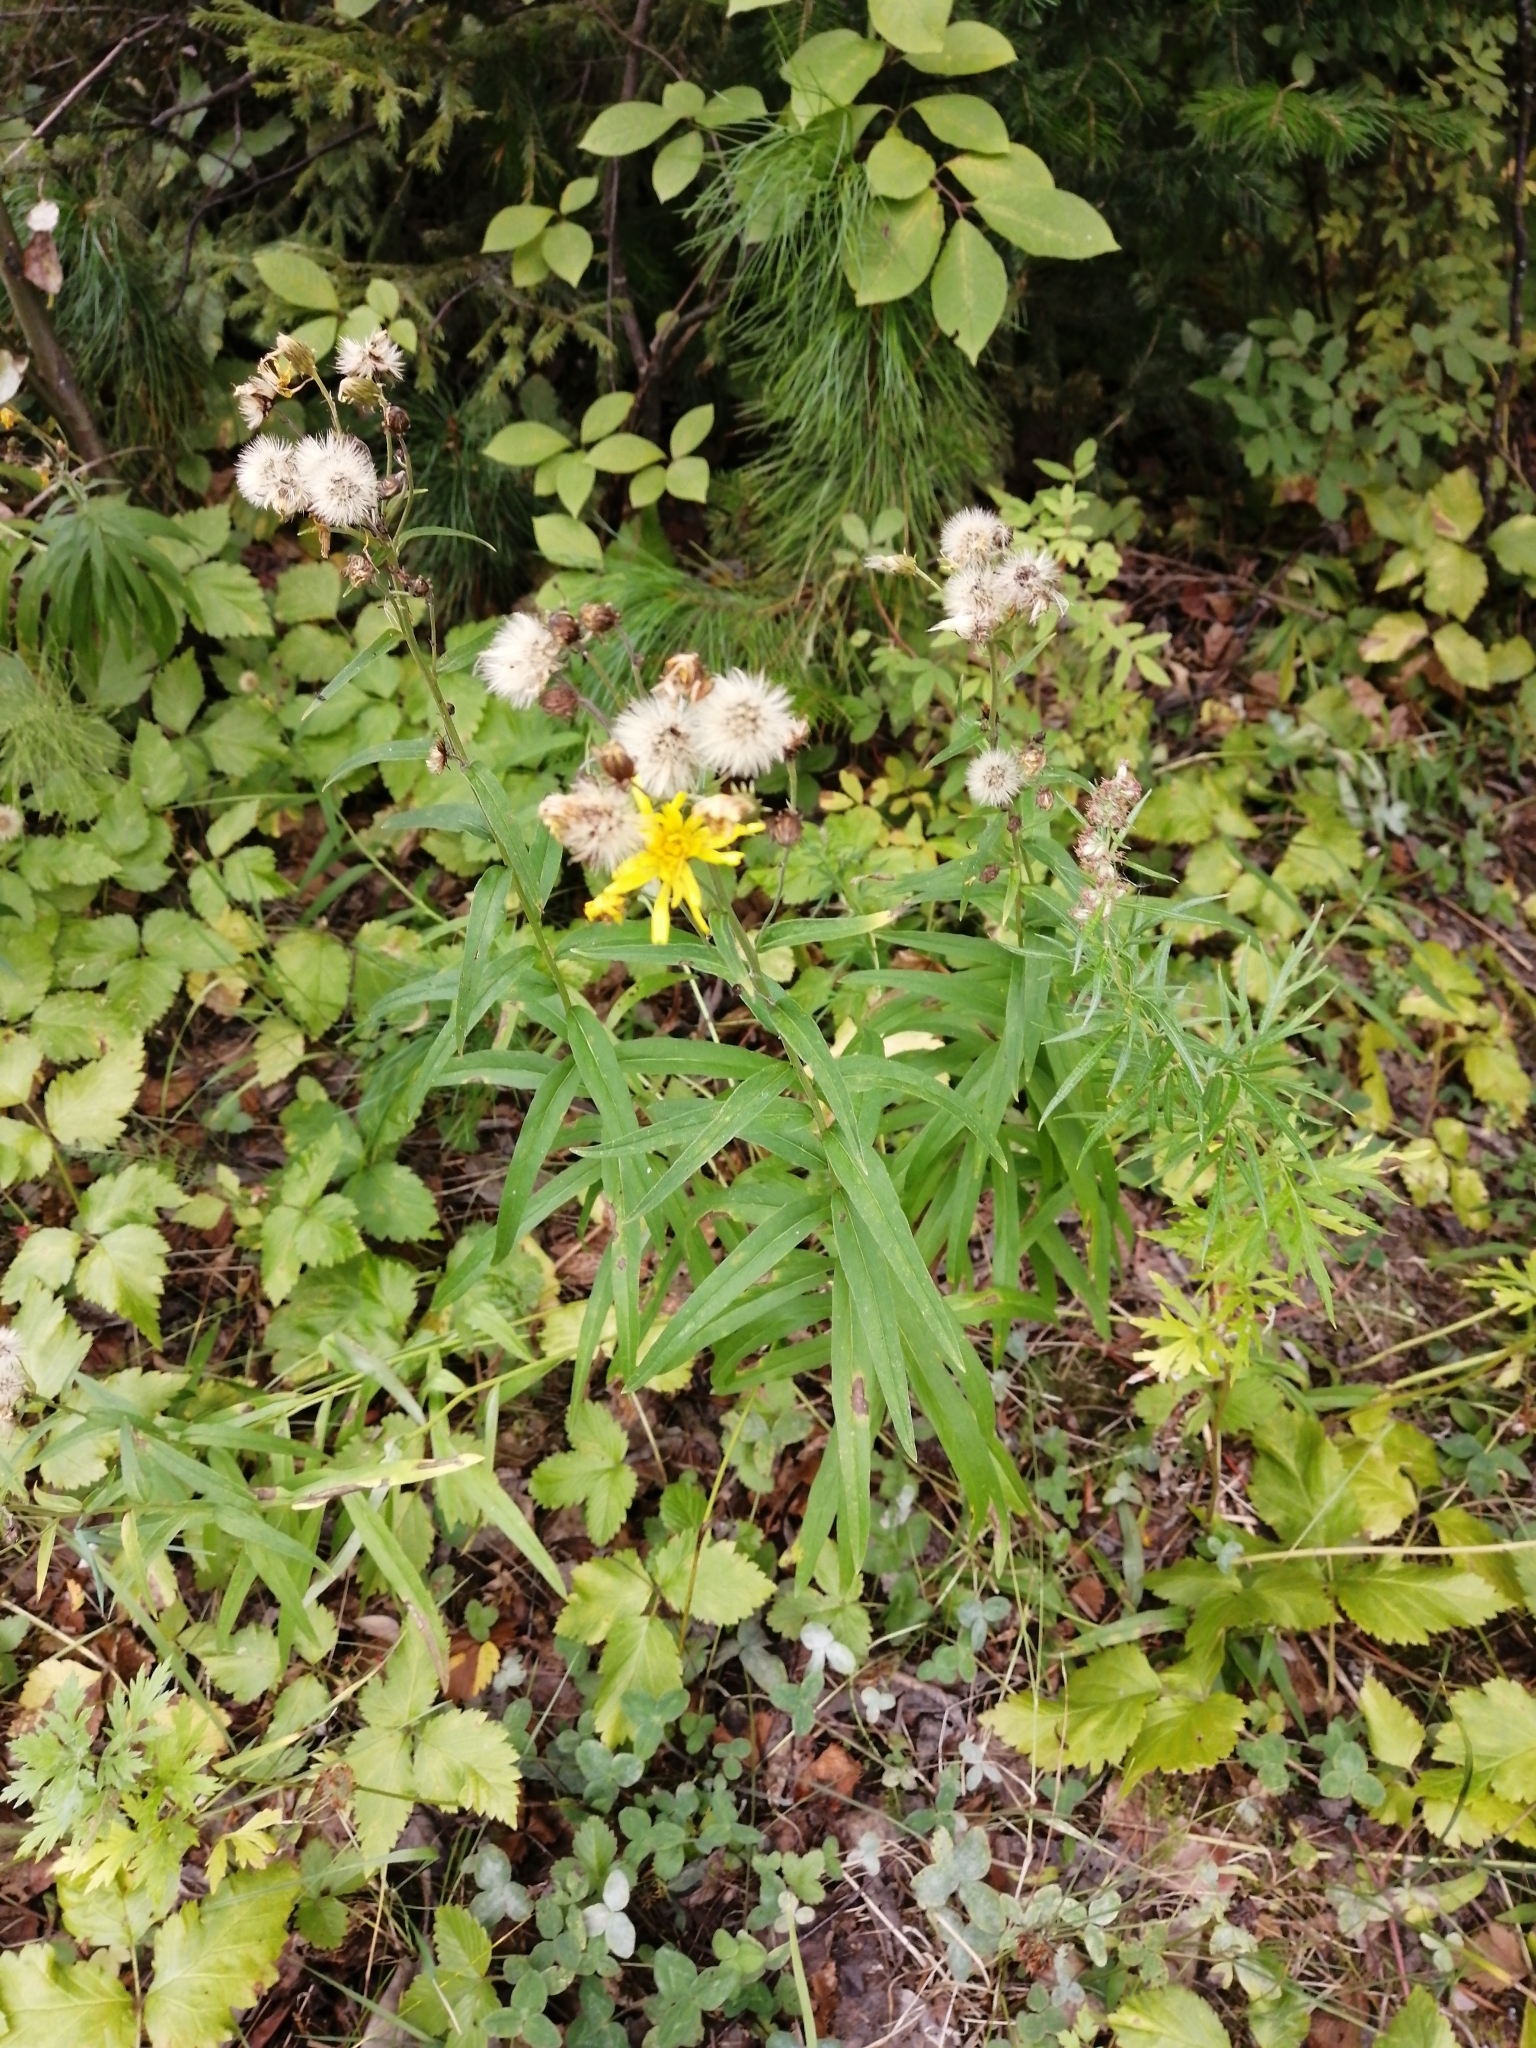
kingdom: Plantae
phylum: Tracheophyta
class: Magnoliopsida
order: Asterales
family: Asteraceae
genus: Hieracium
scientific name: Hieracium umbellatum
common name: Northern hawkweed
